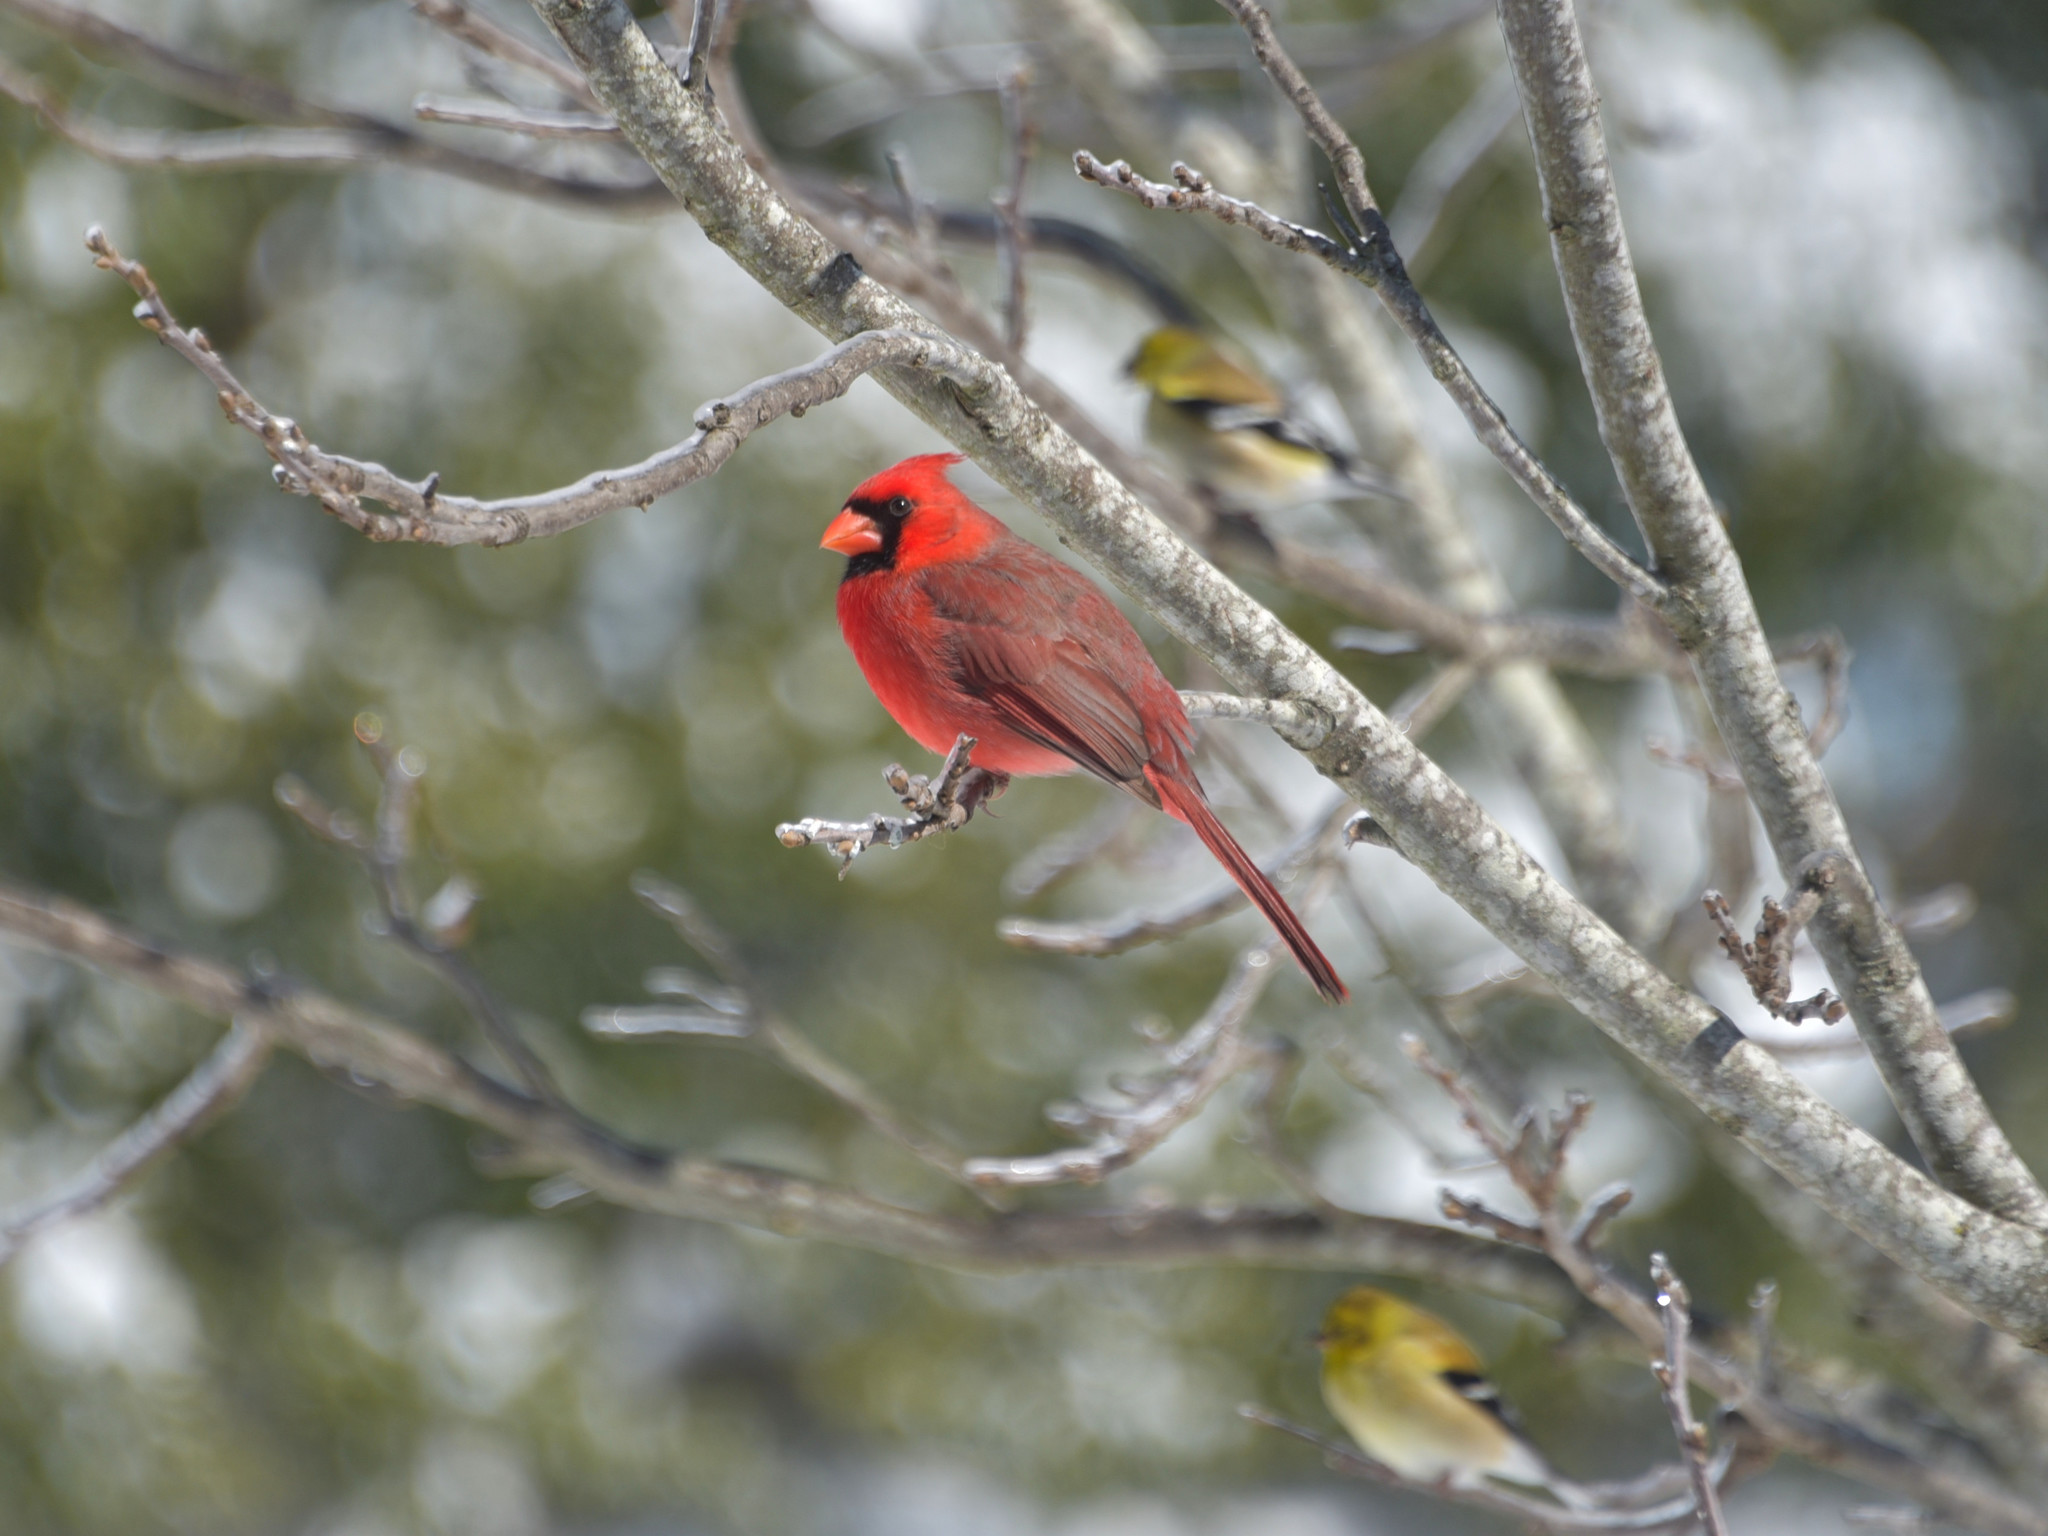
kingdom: Animalia
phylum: Chordata
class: Aves
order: Passeriformes
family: Cardinalidae
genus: Cardinalis
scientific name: Cardinalis cardinalis
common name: Northern cardinal
